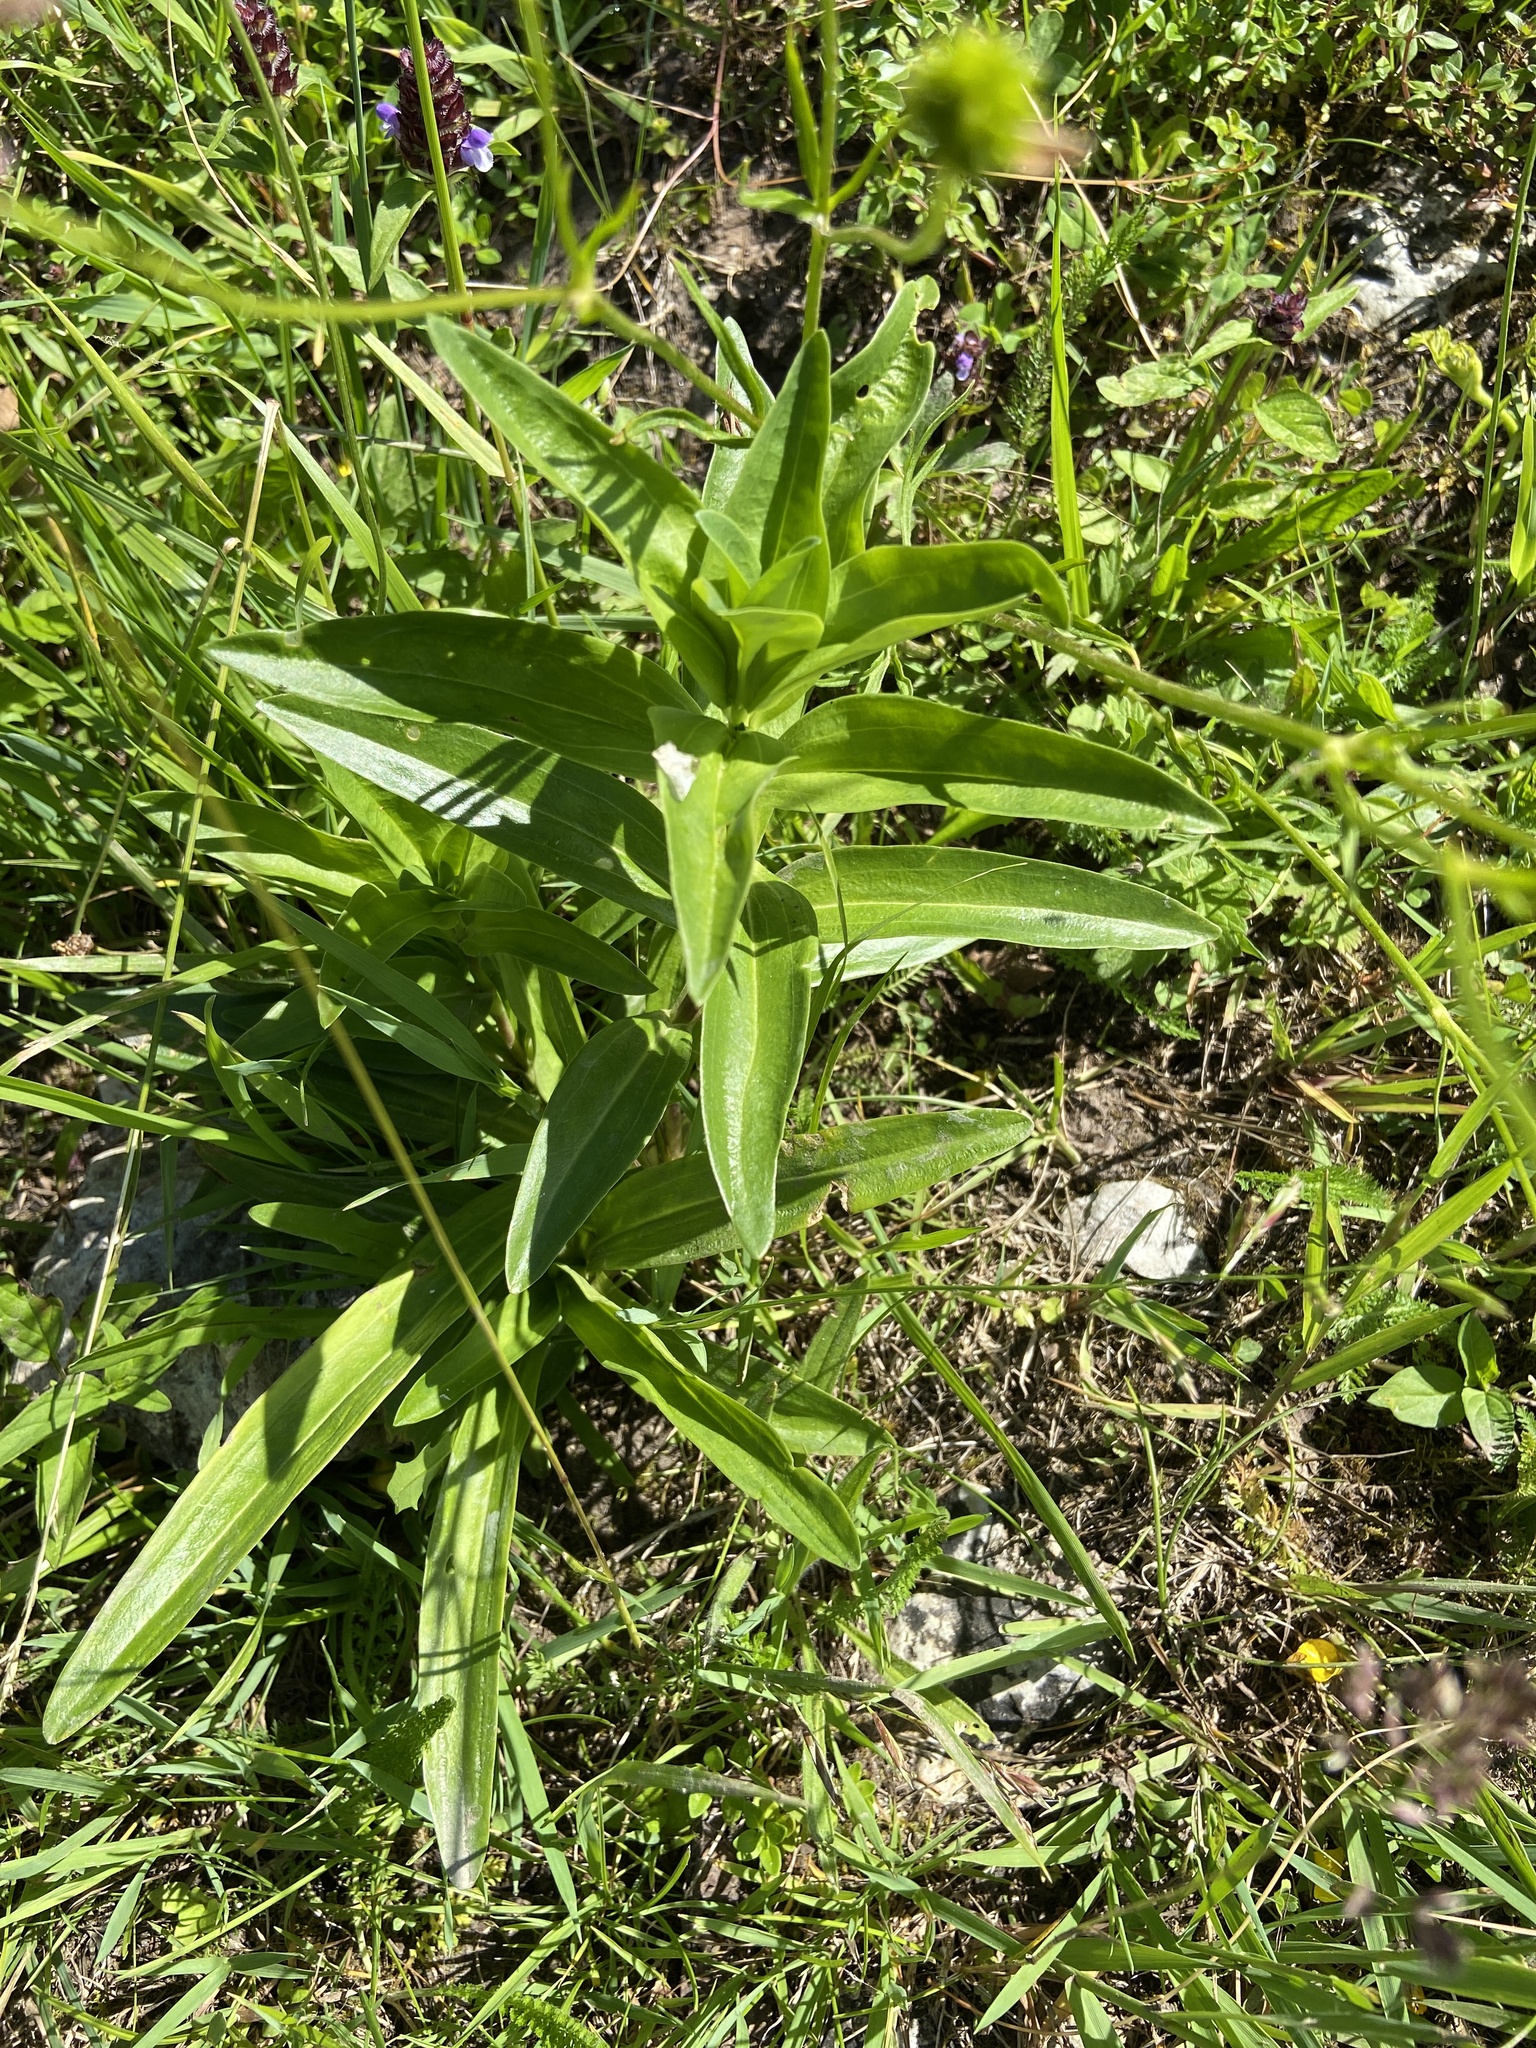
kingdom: Plantae
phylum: Tracheophyta
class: Magnoliopsida
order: Gentianales
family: Gentianaceae
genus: Gentiana
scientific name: Gentiana cruciata
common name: Cross gentian
